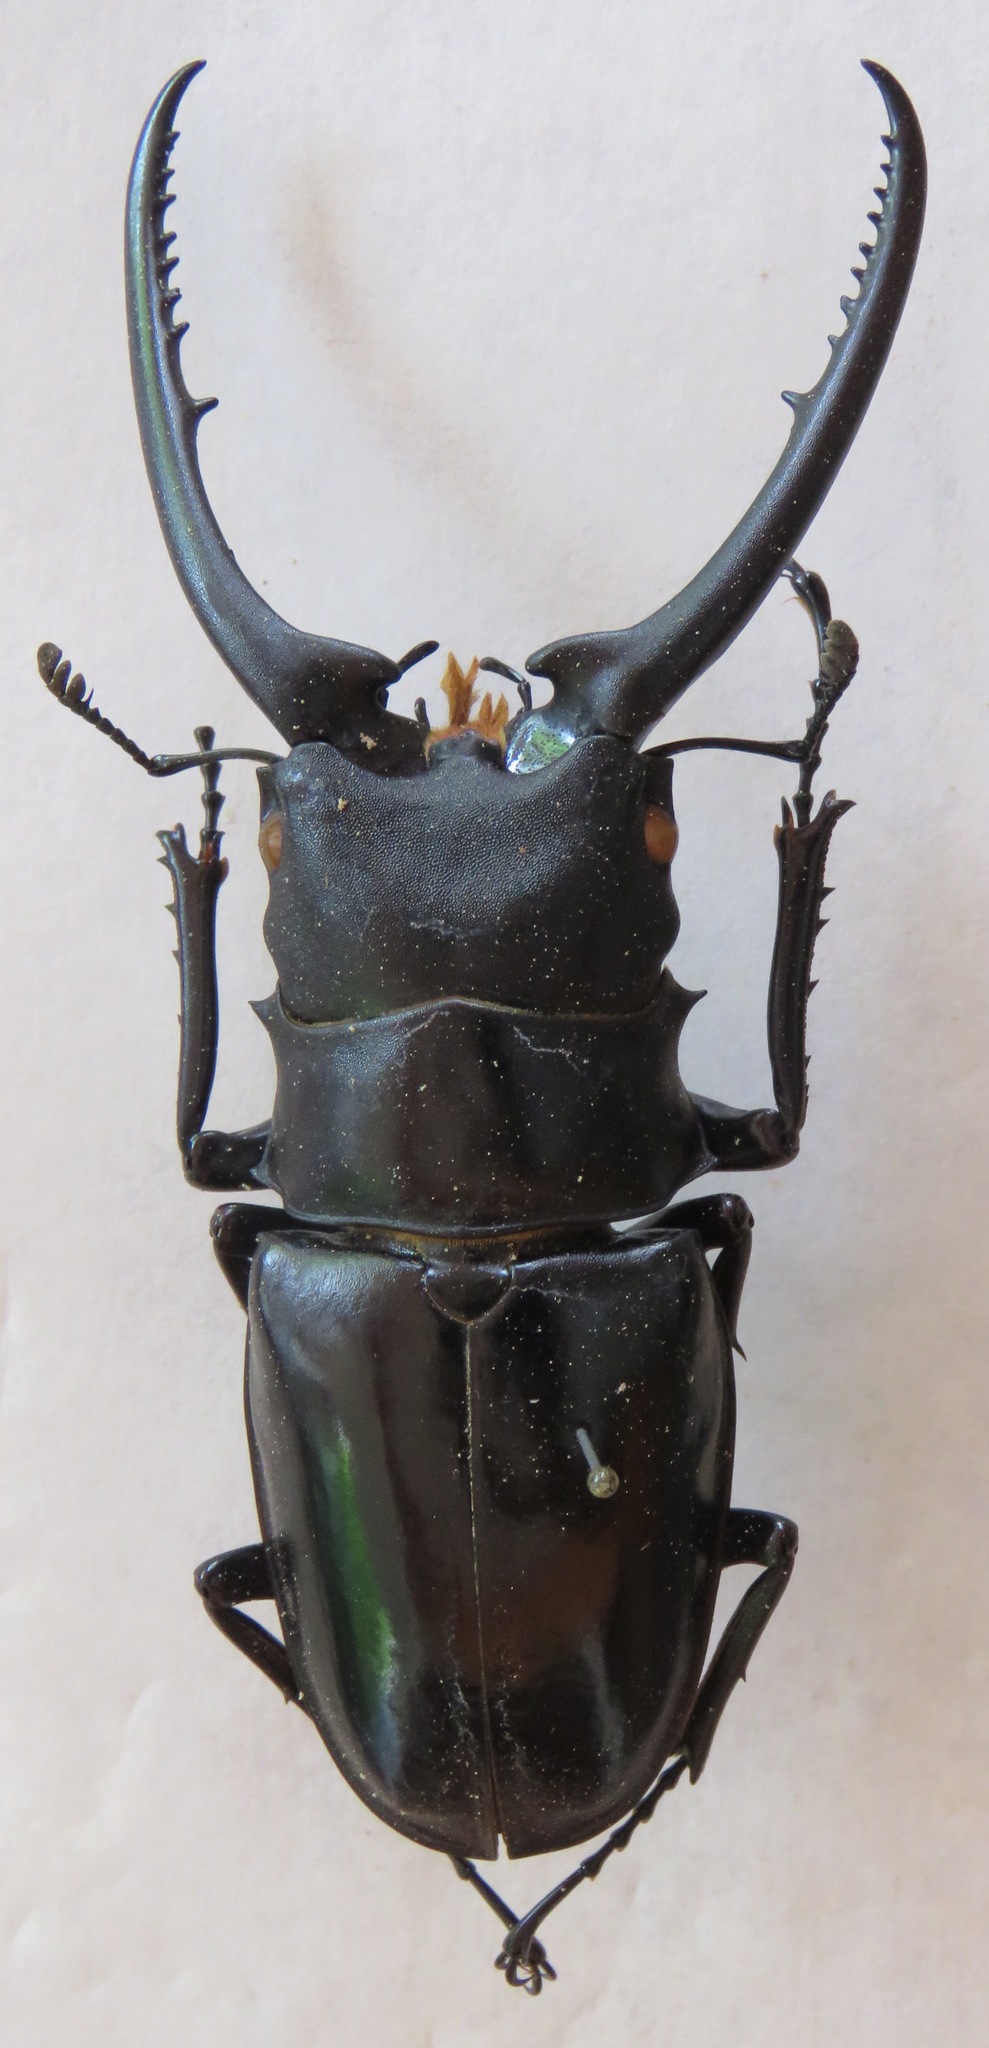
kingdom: Animalia
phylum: Arthropoda
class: Insecta
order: Coleoptera
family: Lucanidae
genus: Prosopocoilus
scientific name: Prosopocoilus confucius
